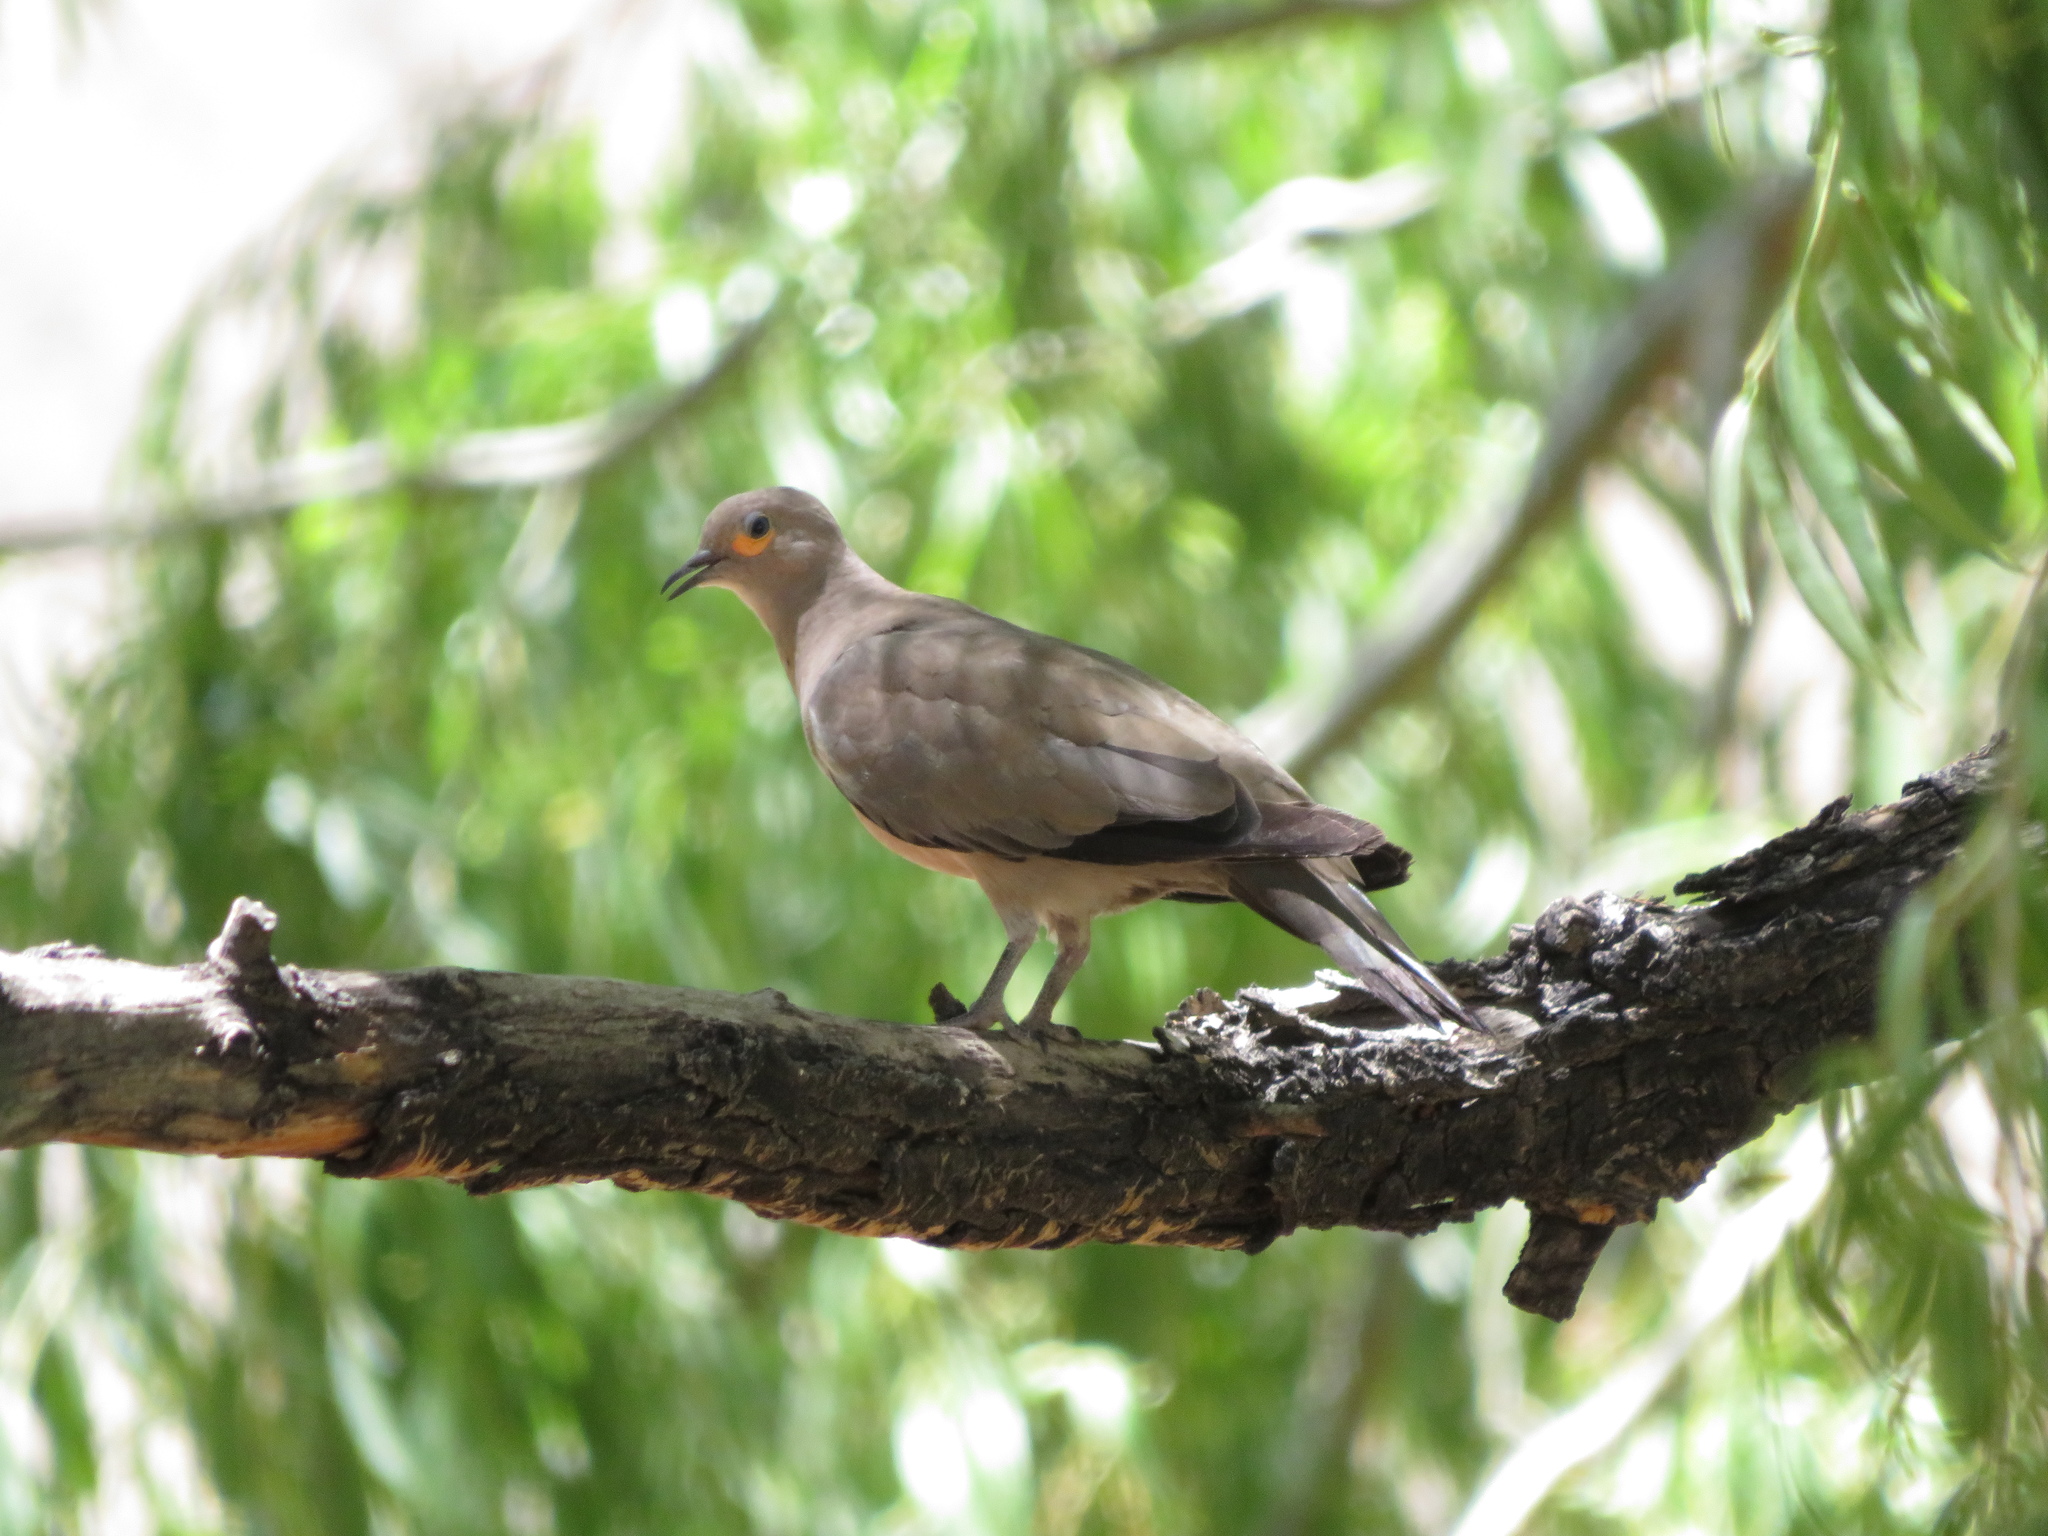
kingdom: Animalia
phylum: Chordata
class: Aves
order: Columbiformes
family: Columbidae
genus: Metriopelia
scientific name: Metriopelia melanoptera
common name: Black-winged ground dove
